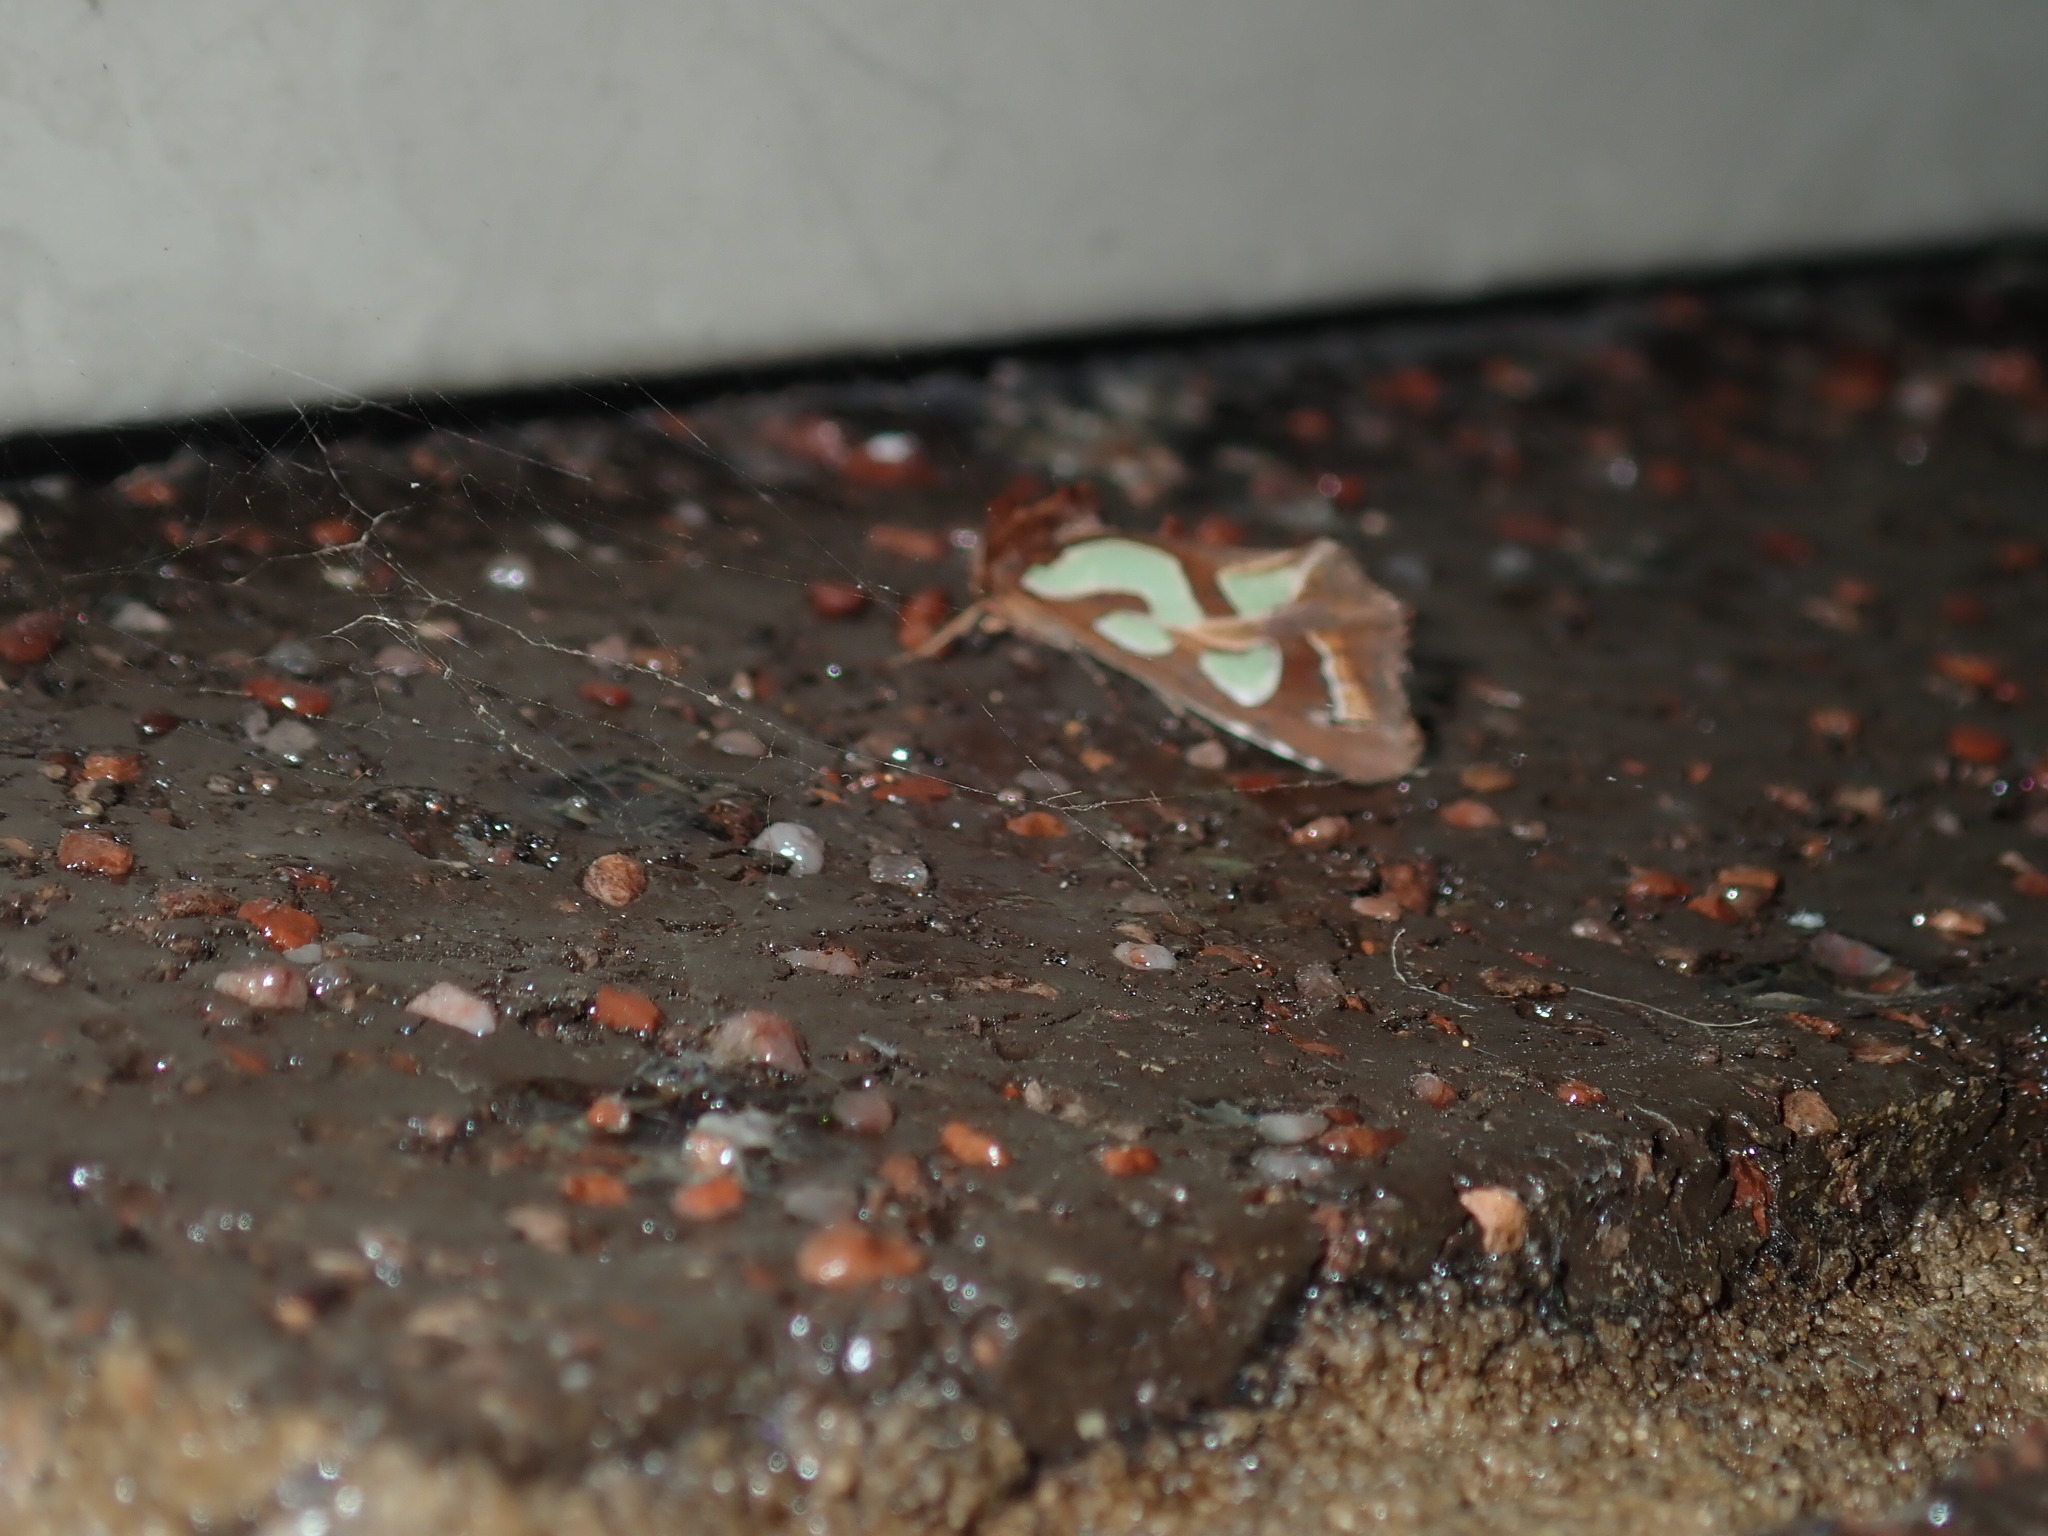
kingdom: Animalia
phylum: Arthropoda
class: Insecta
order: Lepidoptera
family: Noctuidae
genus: Cosmodes
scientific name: Cosmodes elegans
